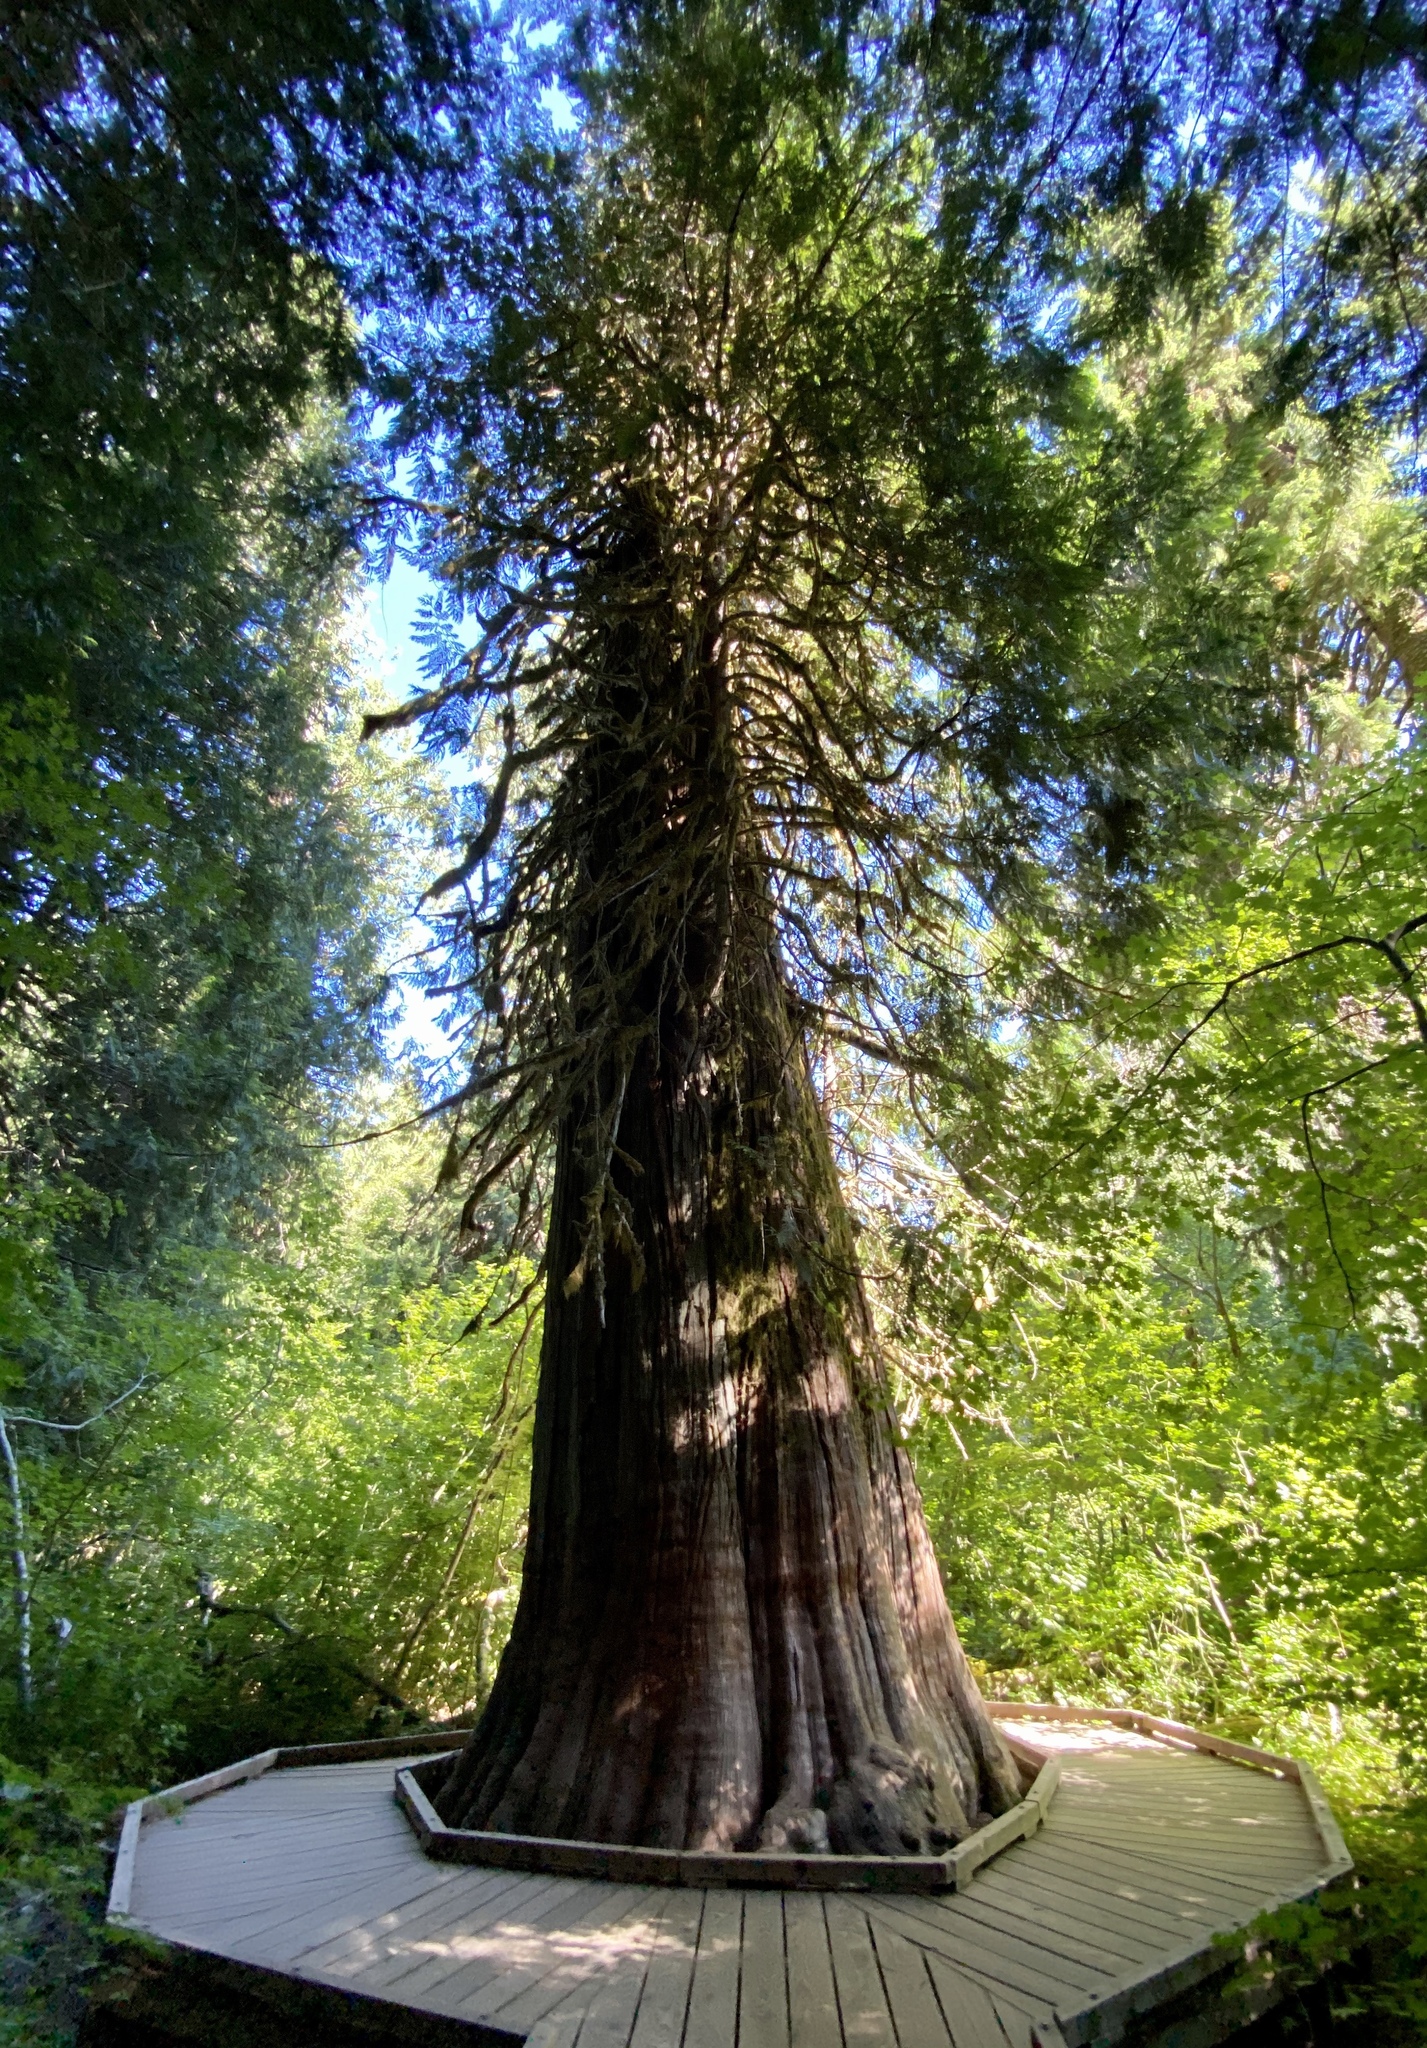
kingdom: Plantae
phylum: Tracheophyta
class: Pinopsida
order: Pinales
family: Cupressaceae
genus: Thuja
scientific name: Thuja plicata
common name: Western red-cedar
